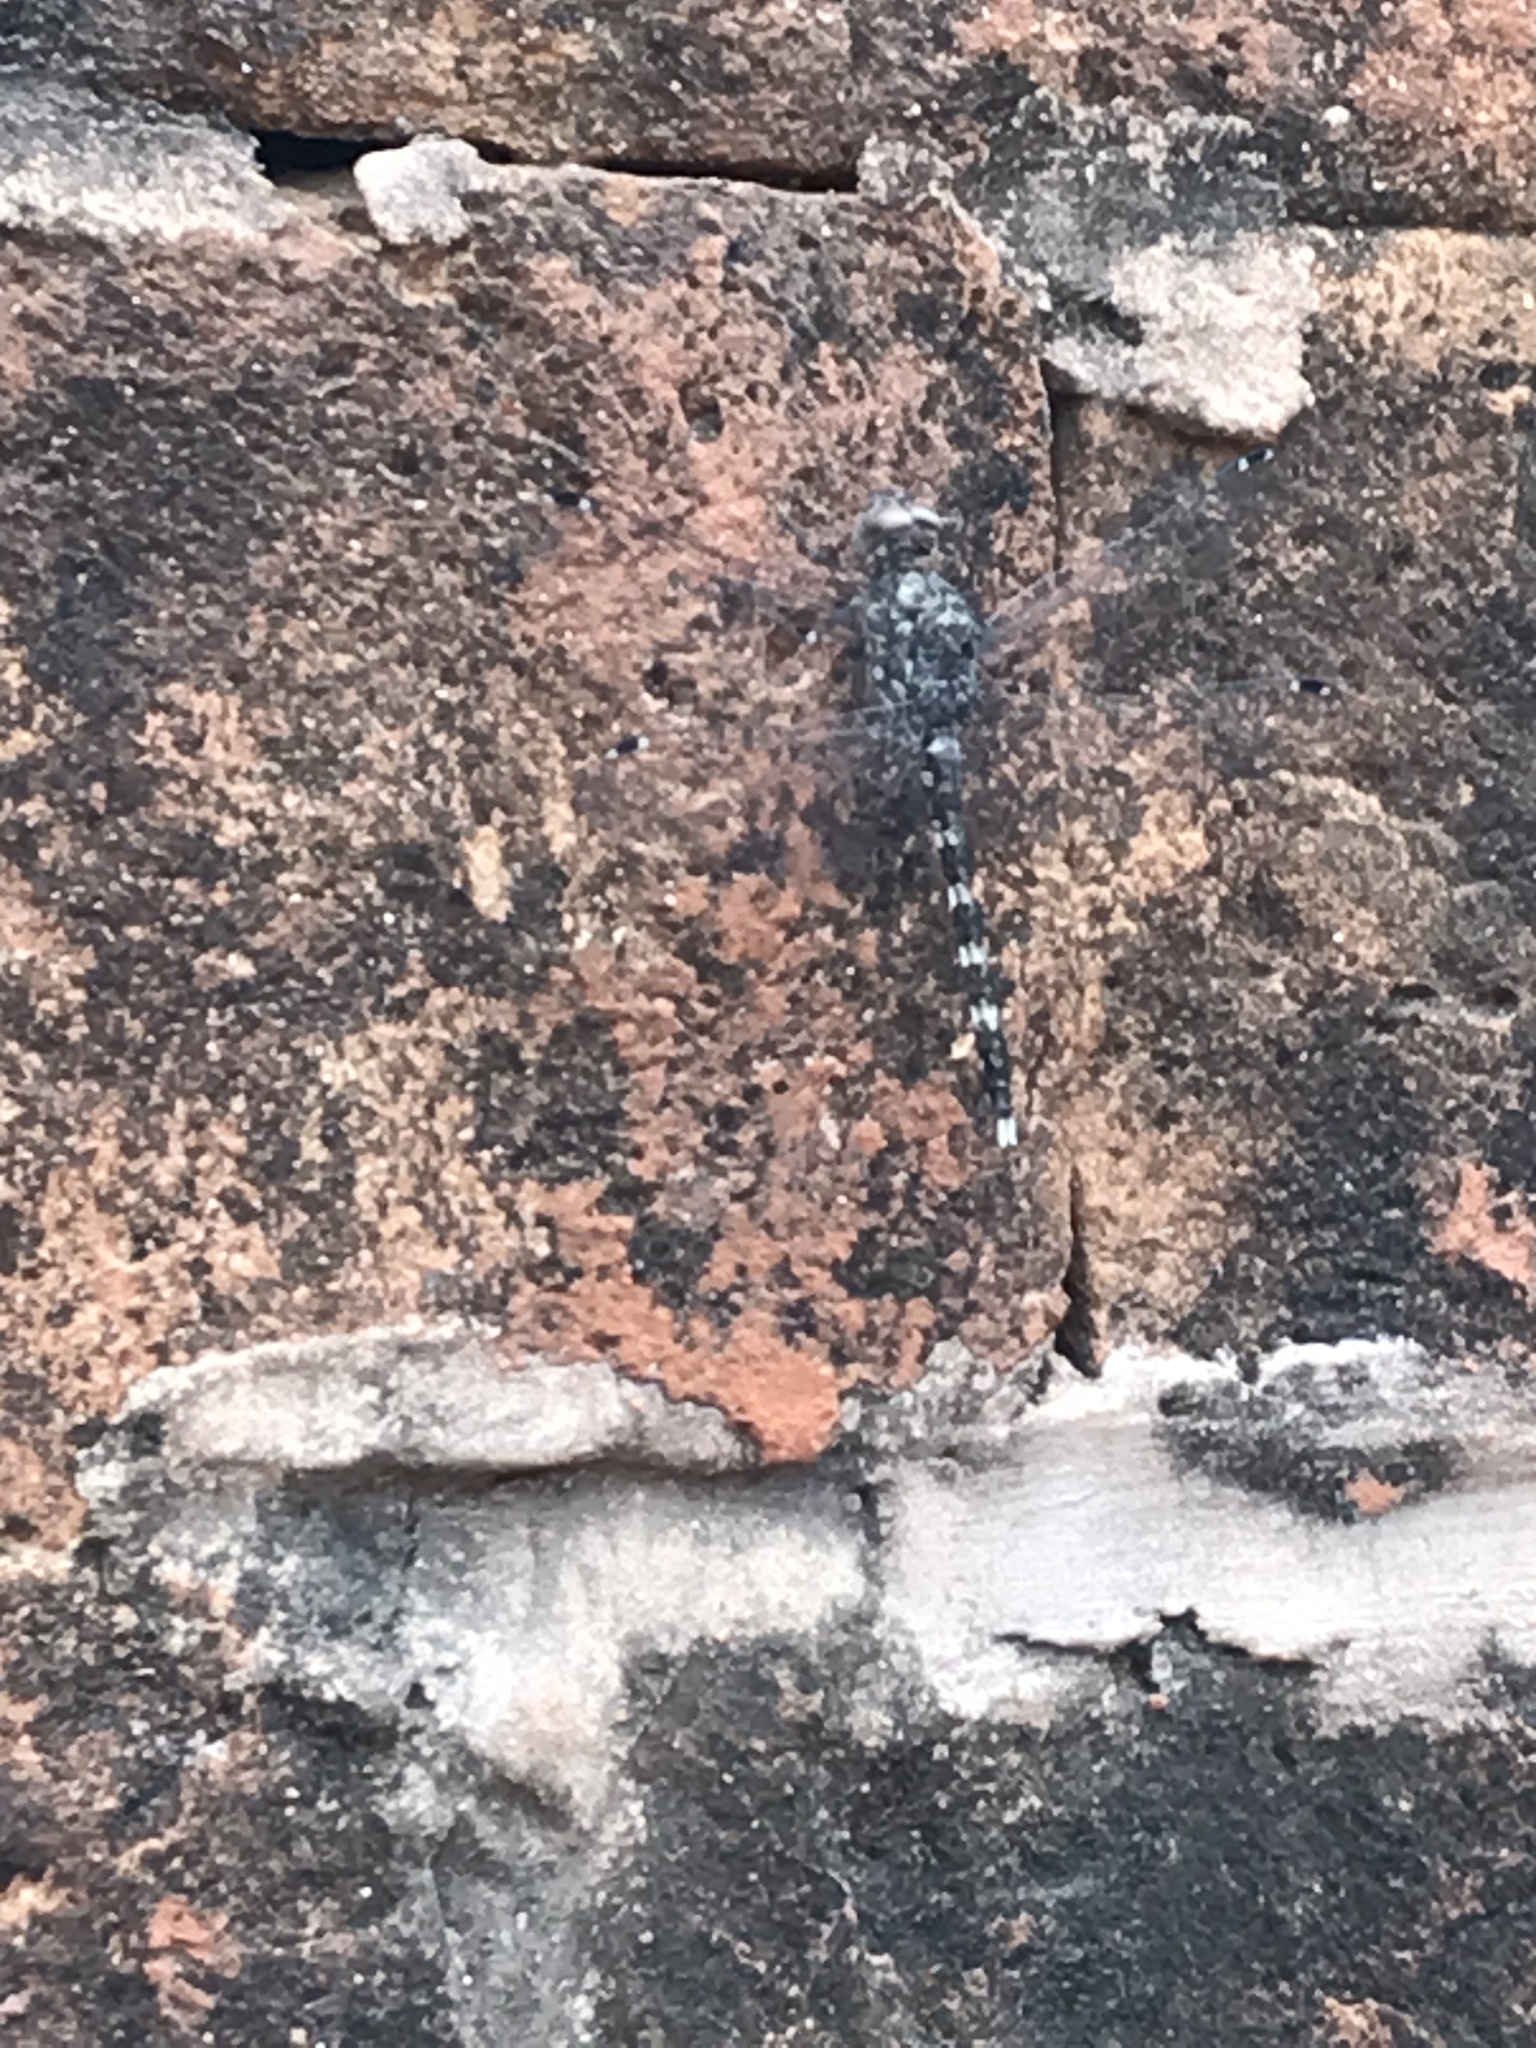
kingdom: Animalia
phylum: Arthropoda
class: Insecta
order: Odonata
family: Libellulidae
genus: Bradinopyga
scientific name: Bradinopyga geminata
